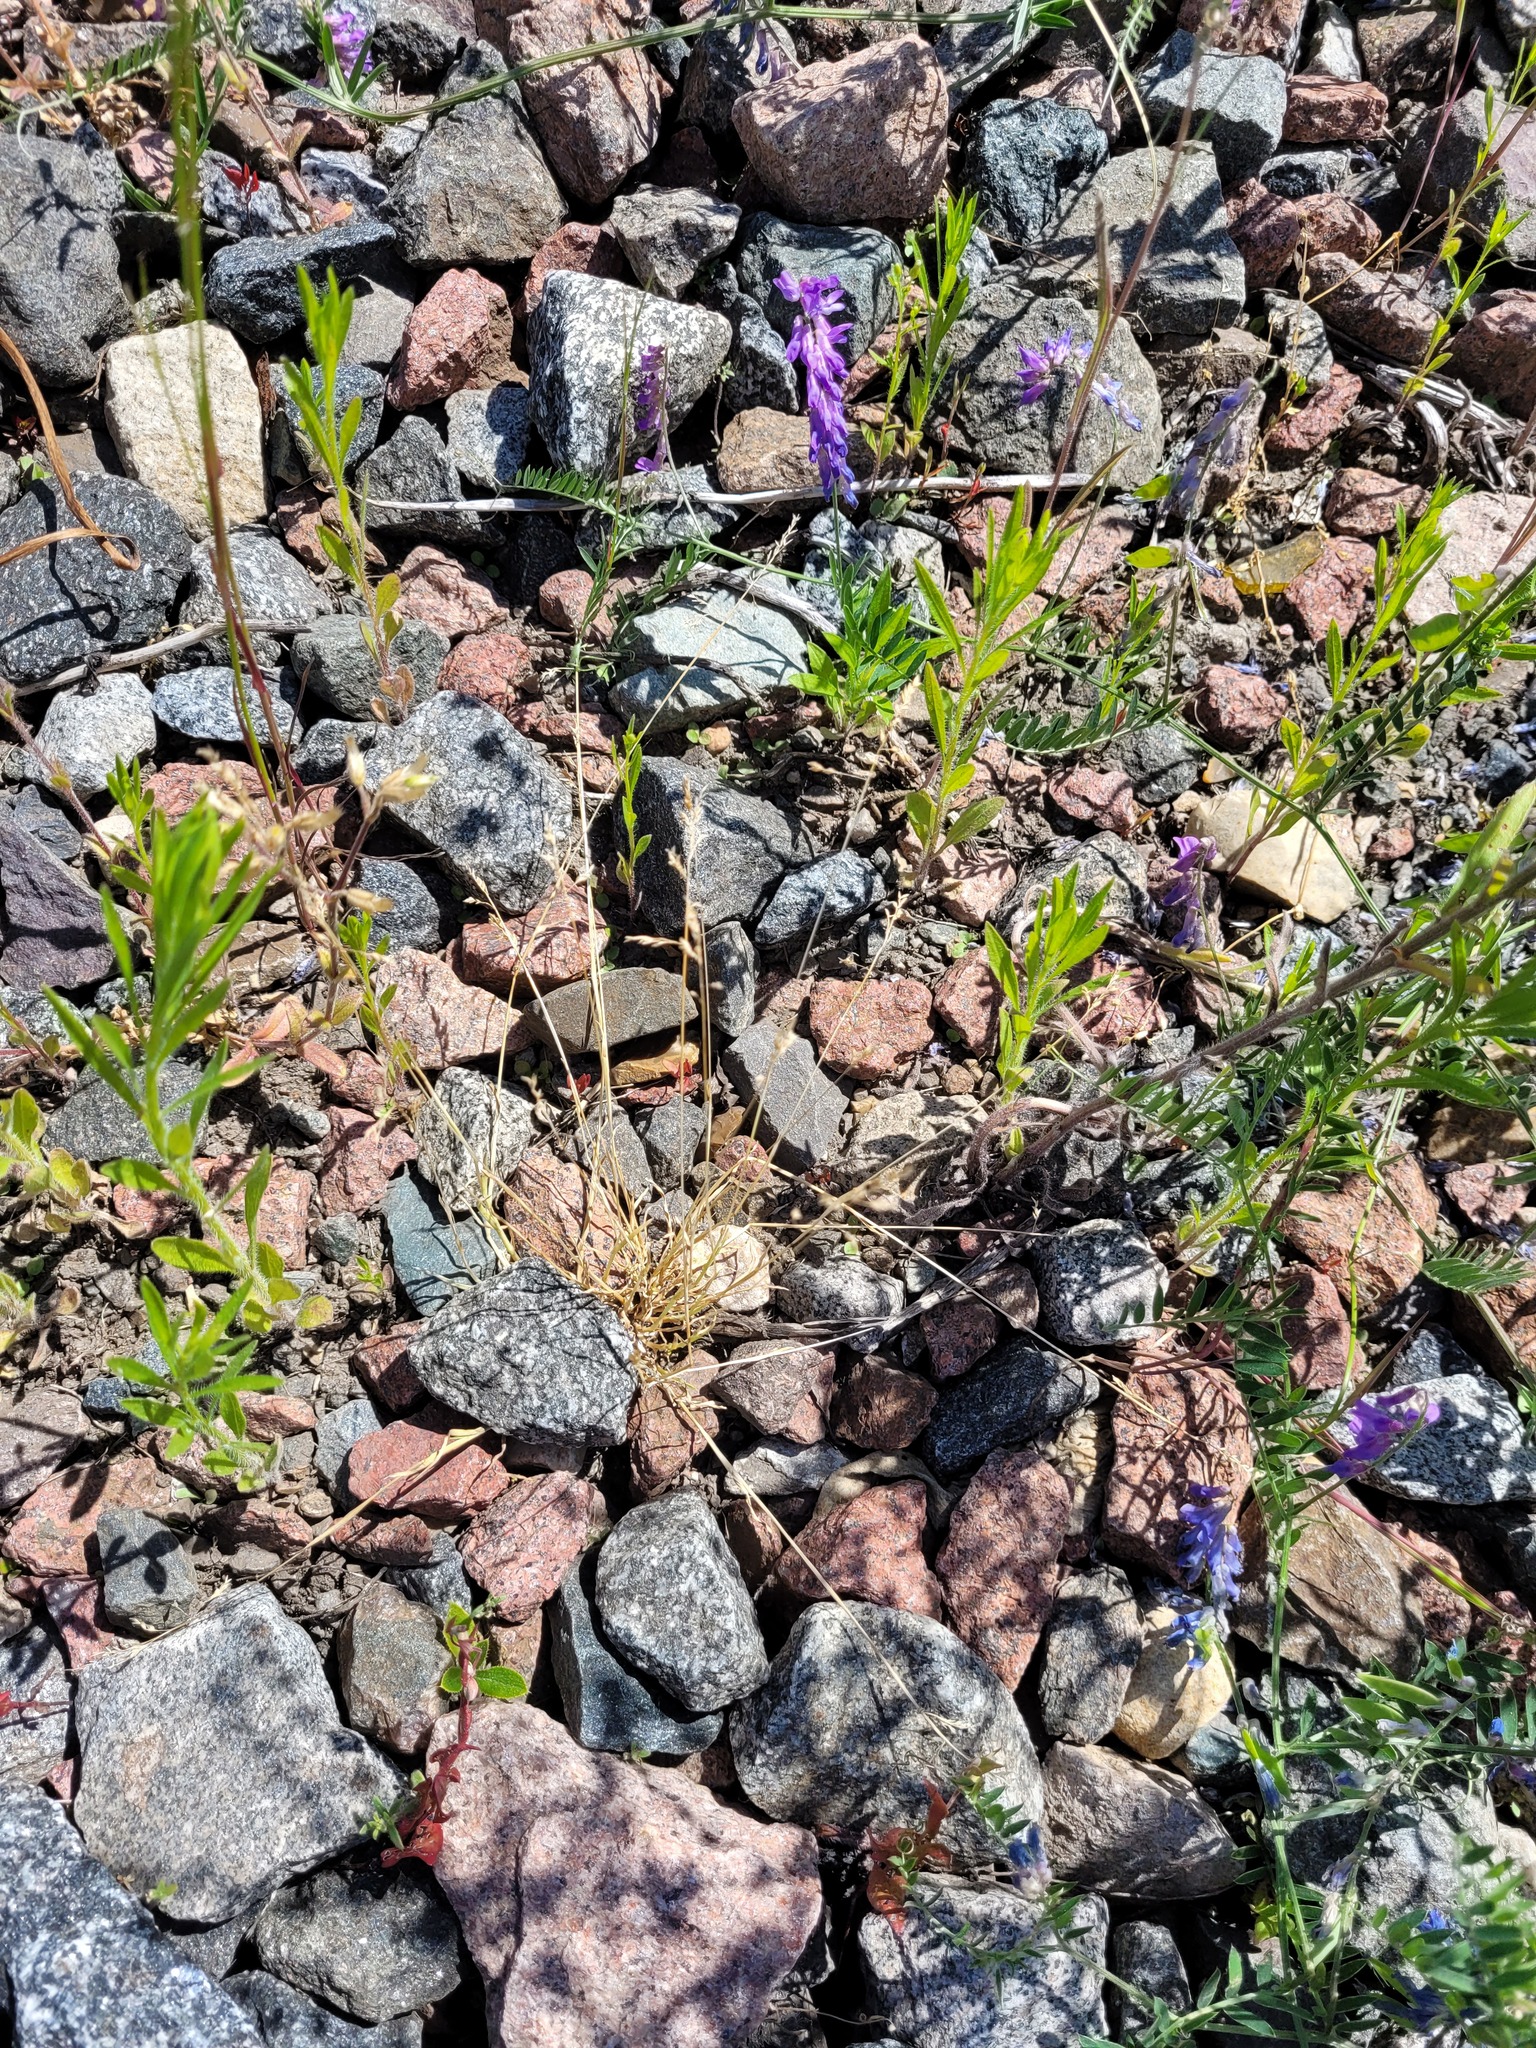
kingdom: Plantae
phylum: Tracheophyta
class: Liliopsida
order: Poales
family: Poaceae
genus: Poa
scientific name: Poa annua
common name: Annual bluegrass
